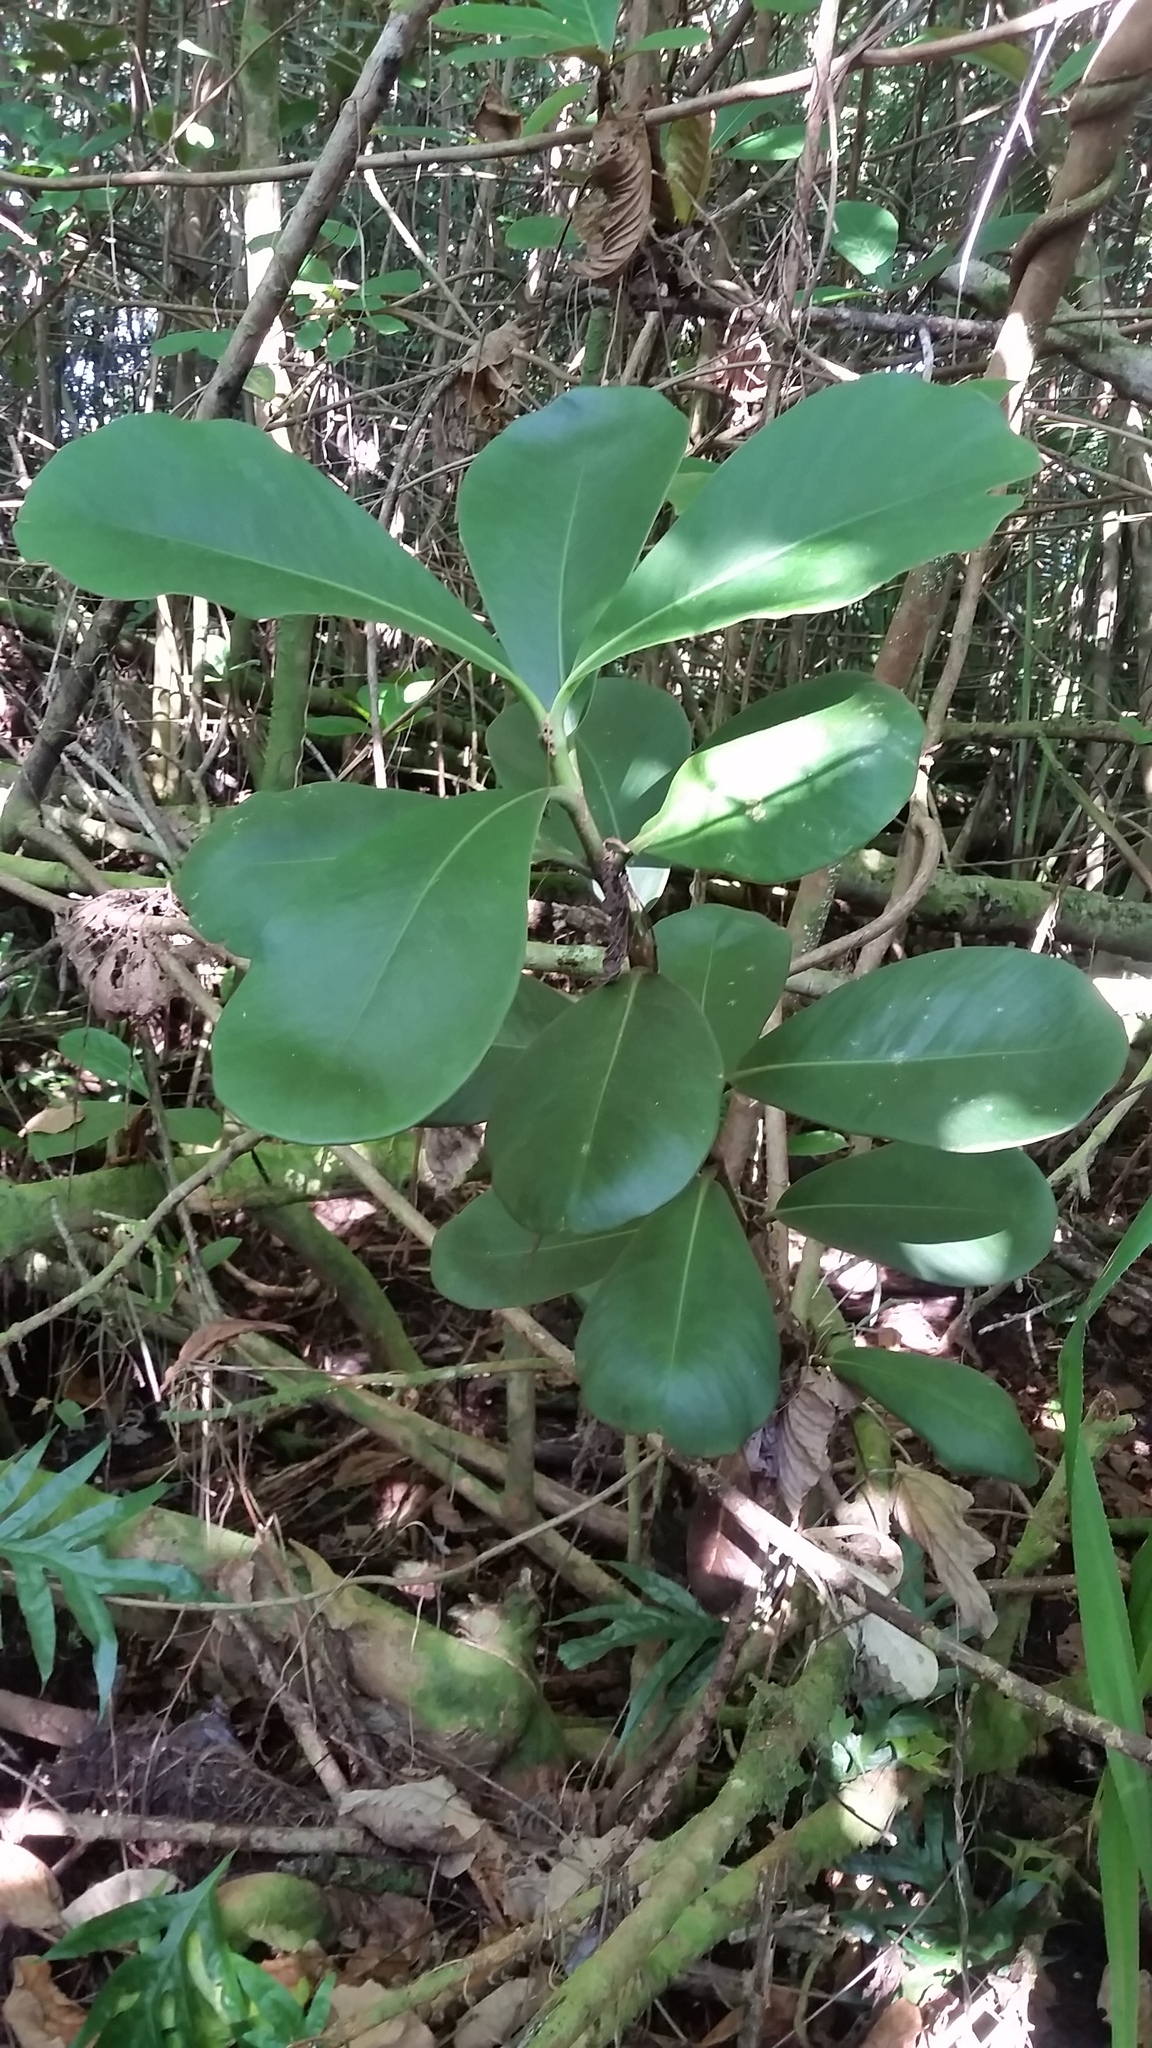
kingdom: Plantae
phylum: Tracheophyta
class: Magnoliopsida
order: Malpighiales
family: Clusiaceae
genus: Clusia
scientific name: Clusia rosea
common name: Scotch attorney
